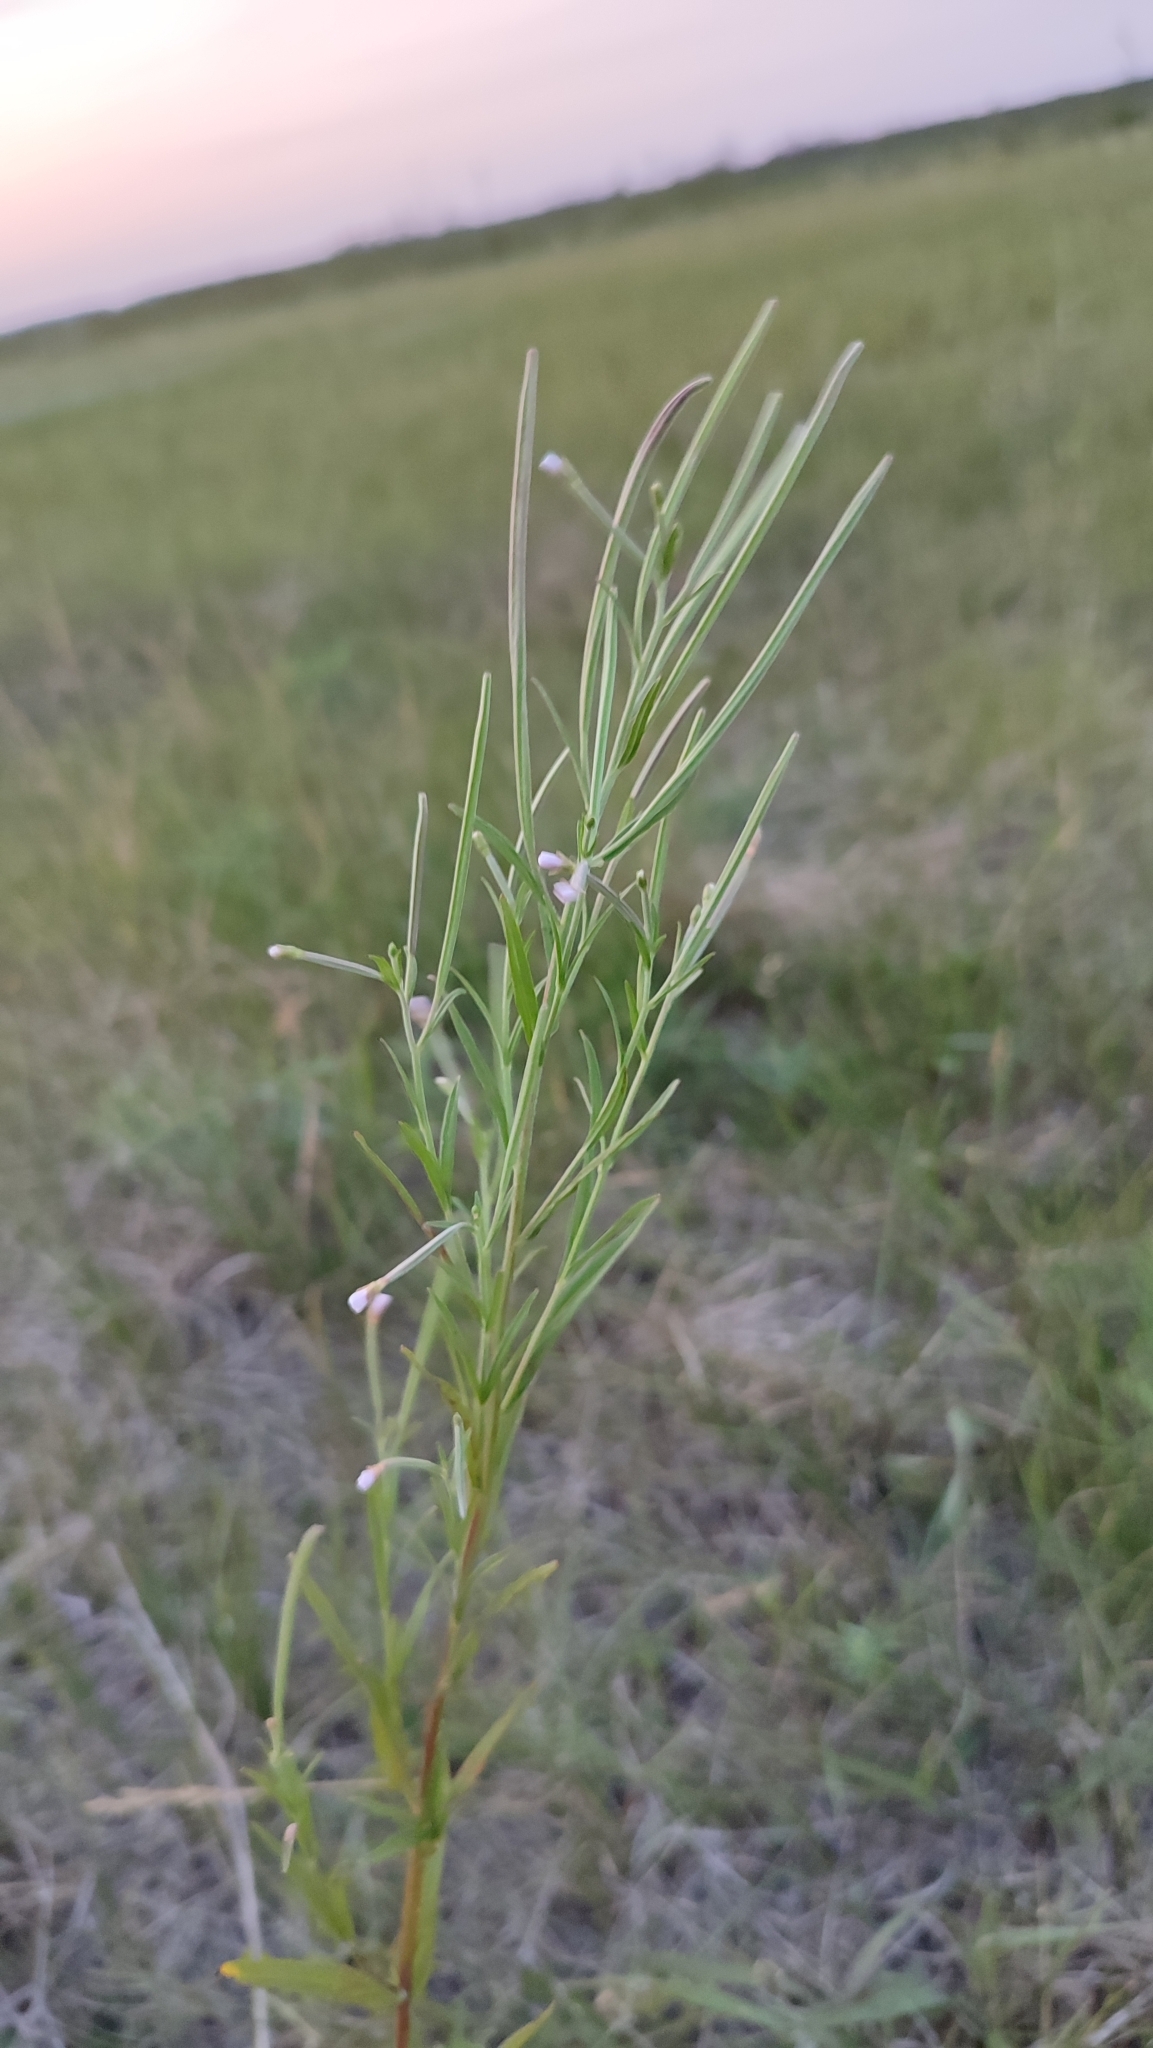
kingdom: Plantae
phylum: Tracheophyta
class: Magnoliopsida
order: Myrtales
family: Onagraceae
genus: Epilobium
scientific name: Epilobium palustre
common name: Marsh willowherb
